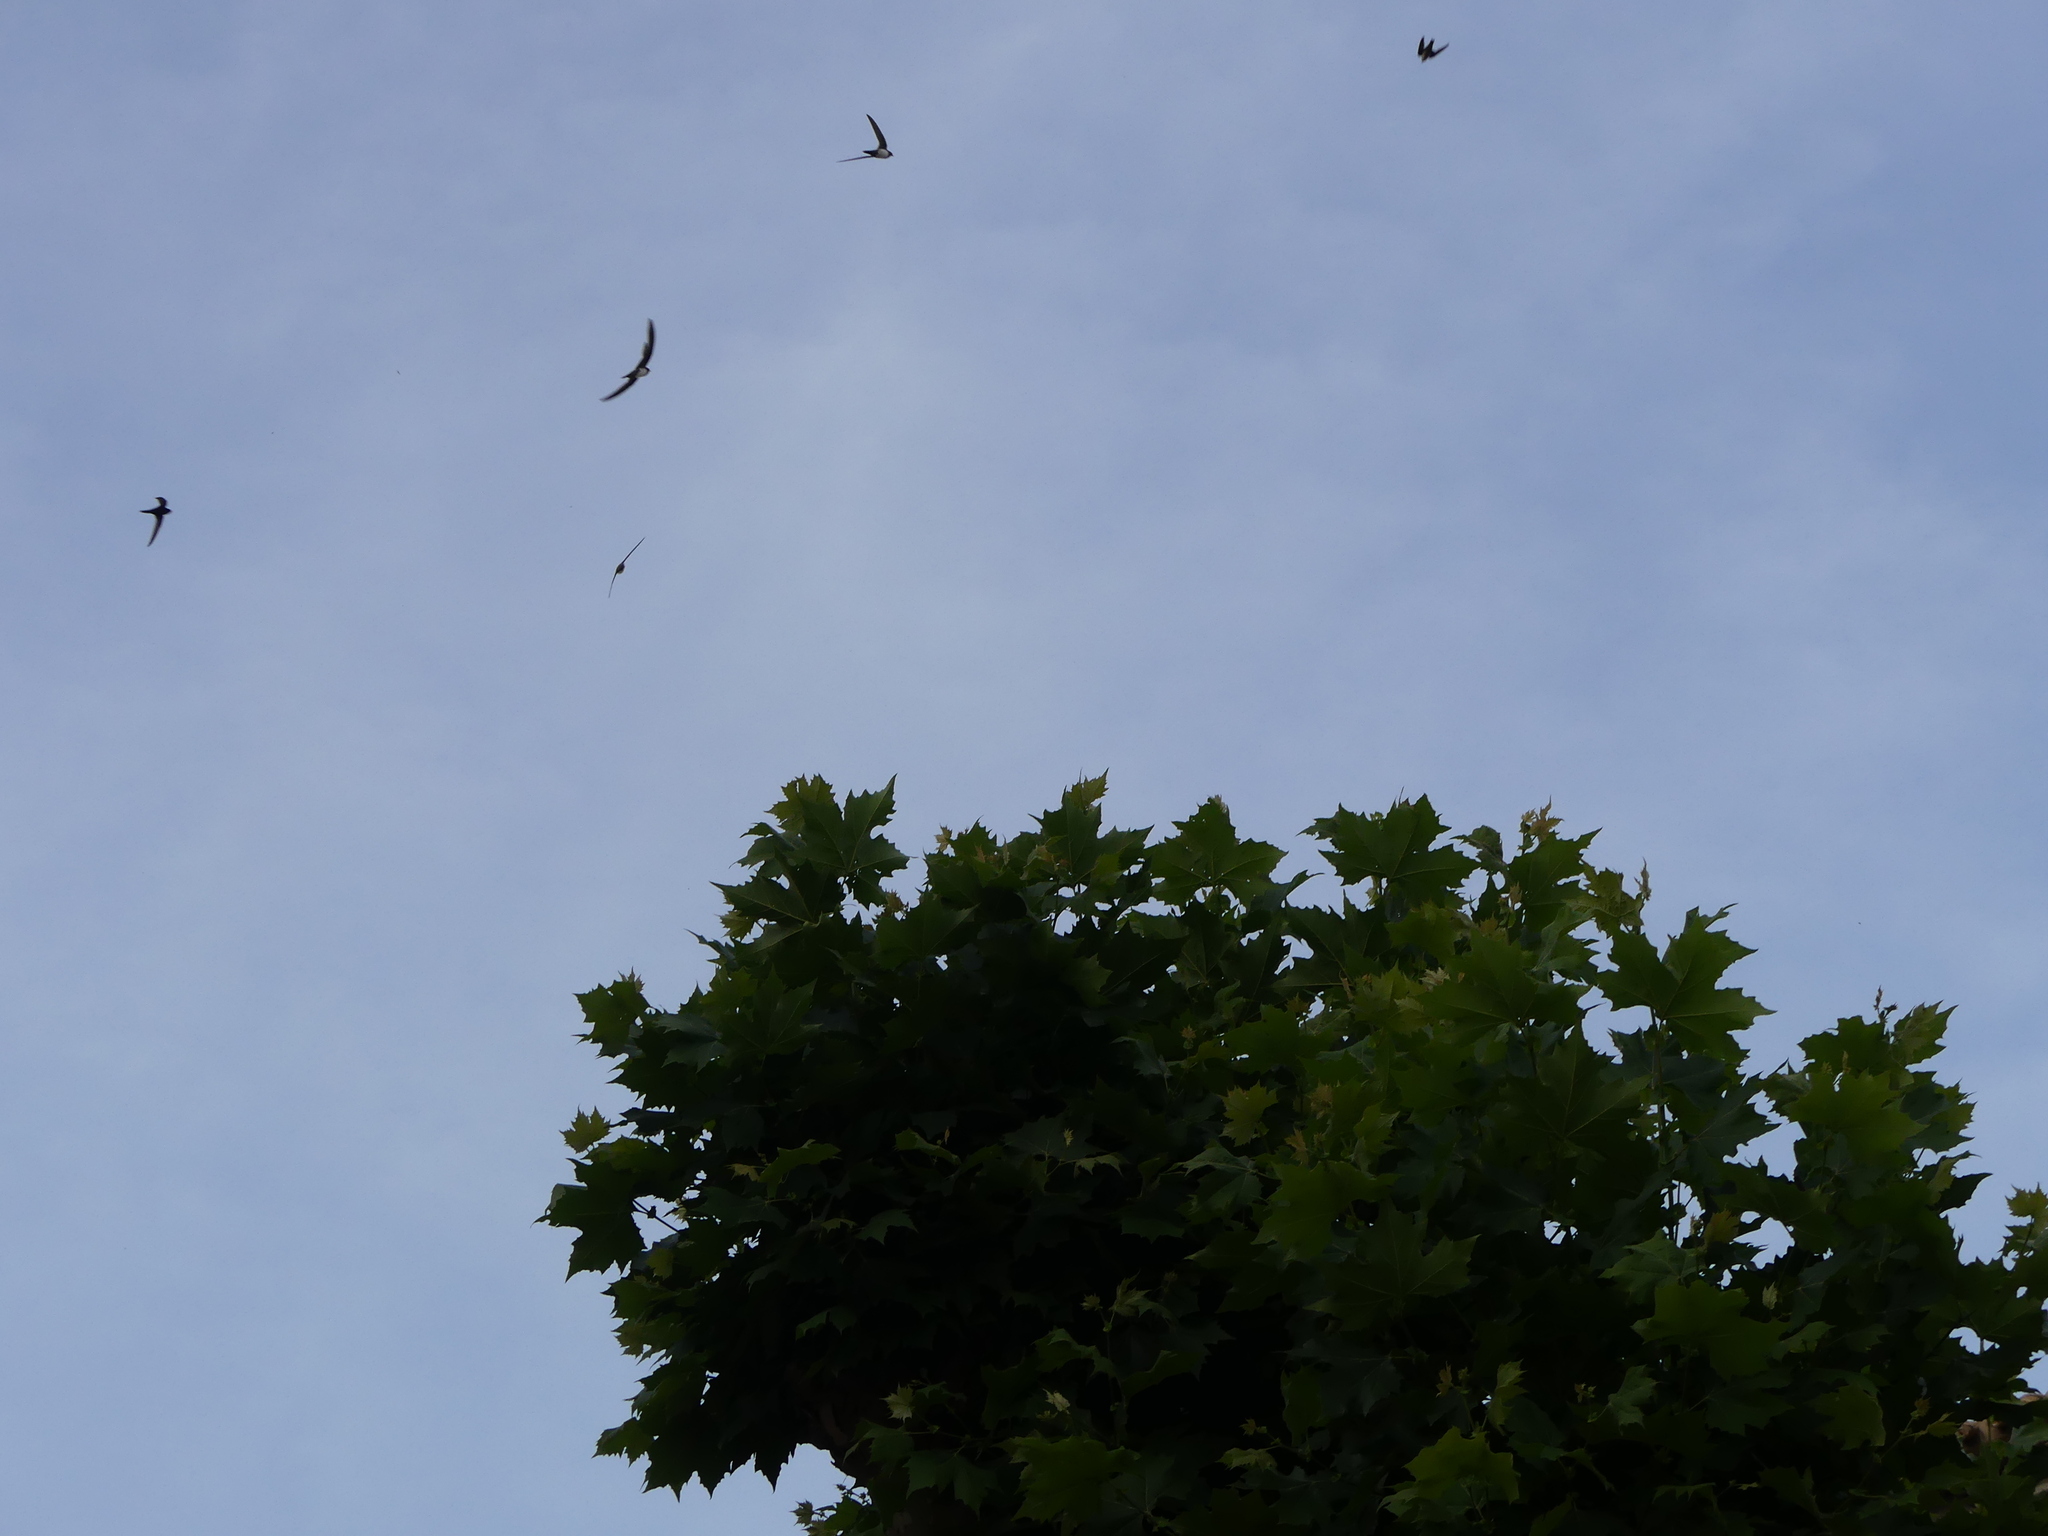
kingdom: Animalia
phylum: Chordata
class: Aves
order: Apodiformes
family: Apodidae
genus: Tachymarptis
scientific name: Tachymarptis melba
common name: Alpine swift
